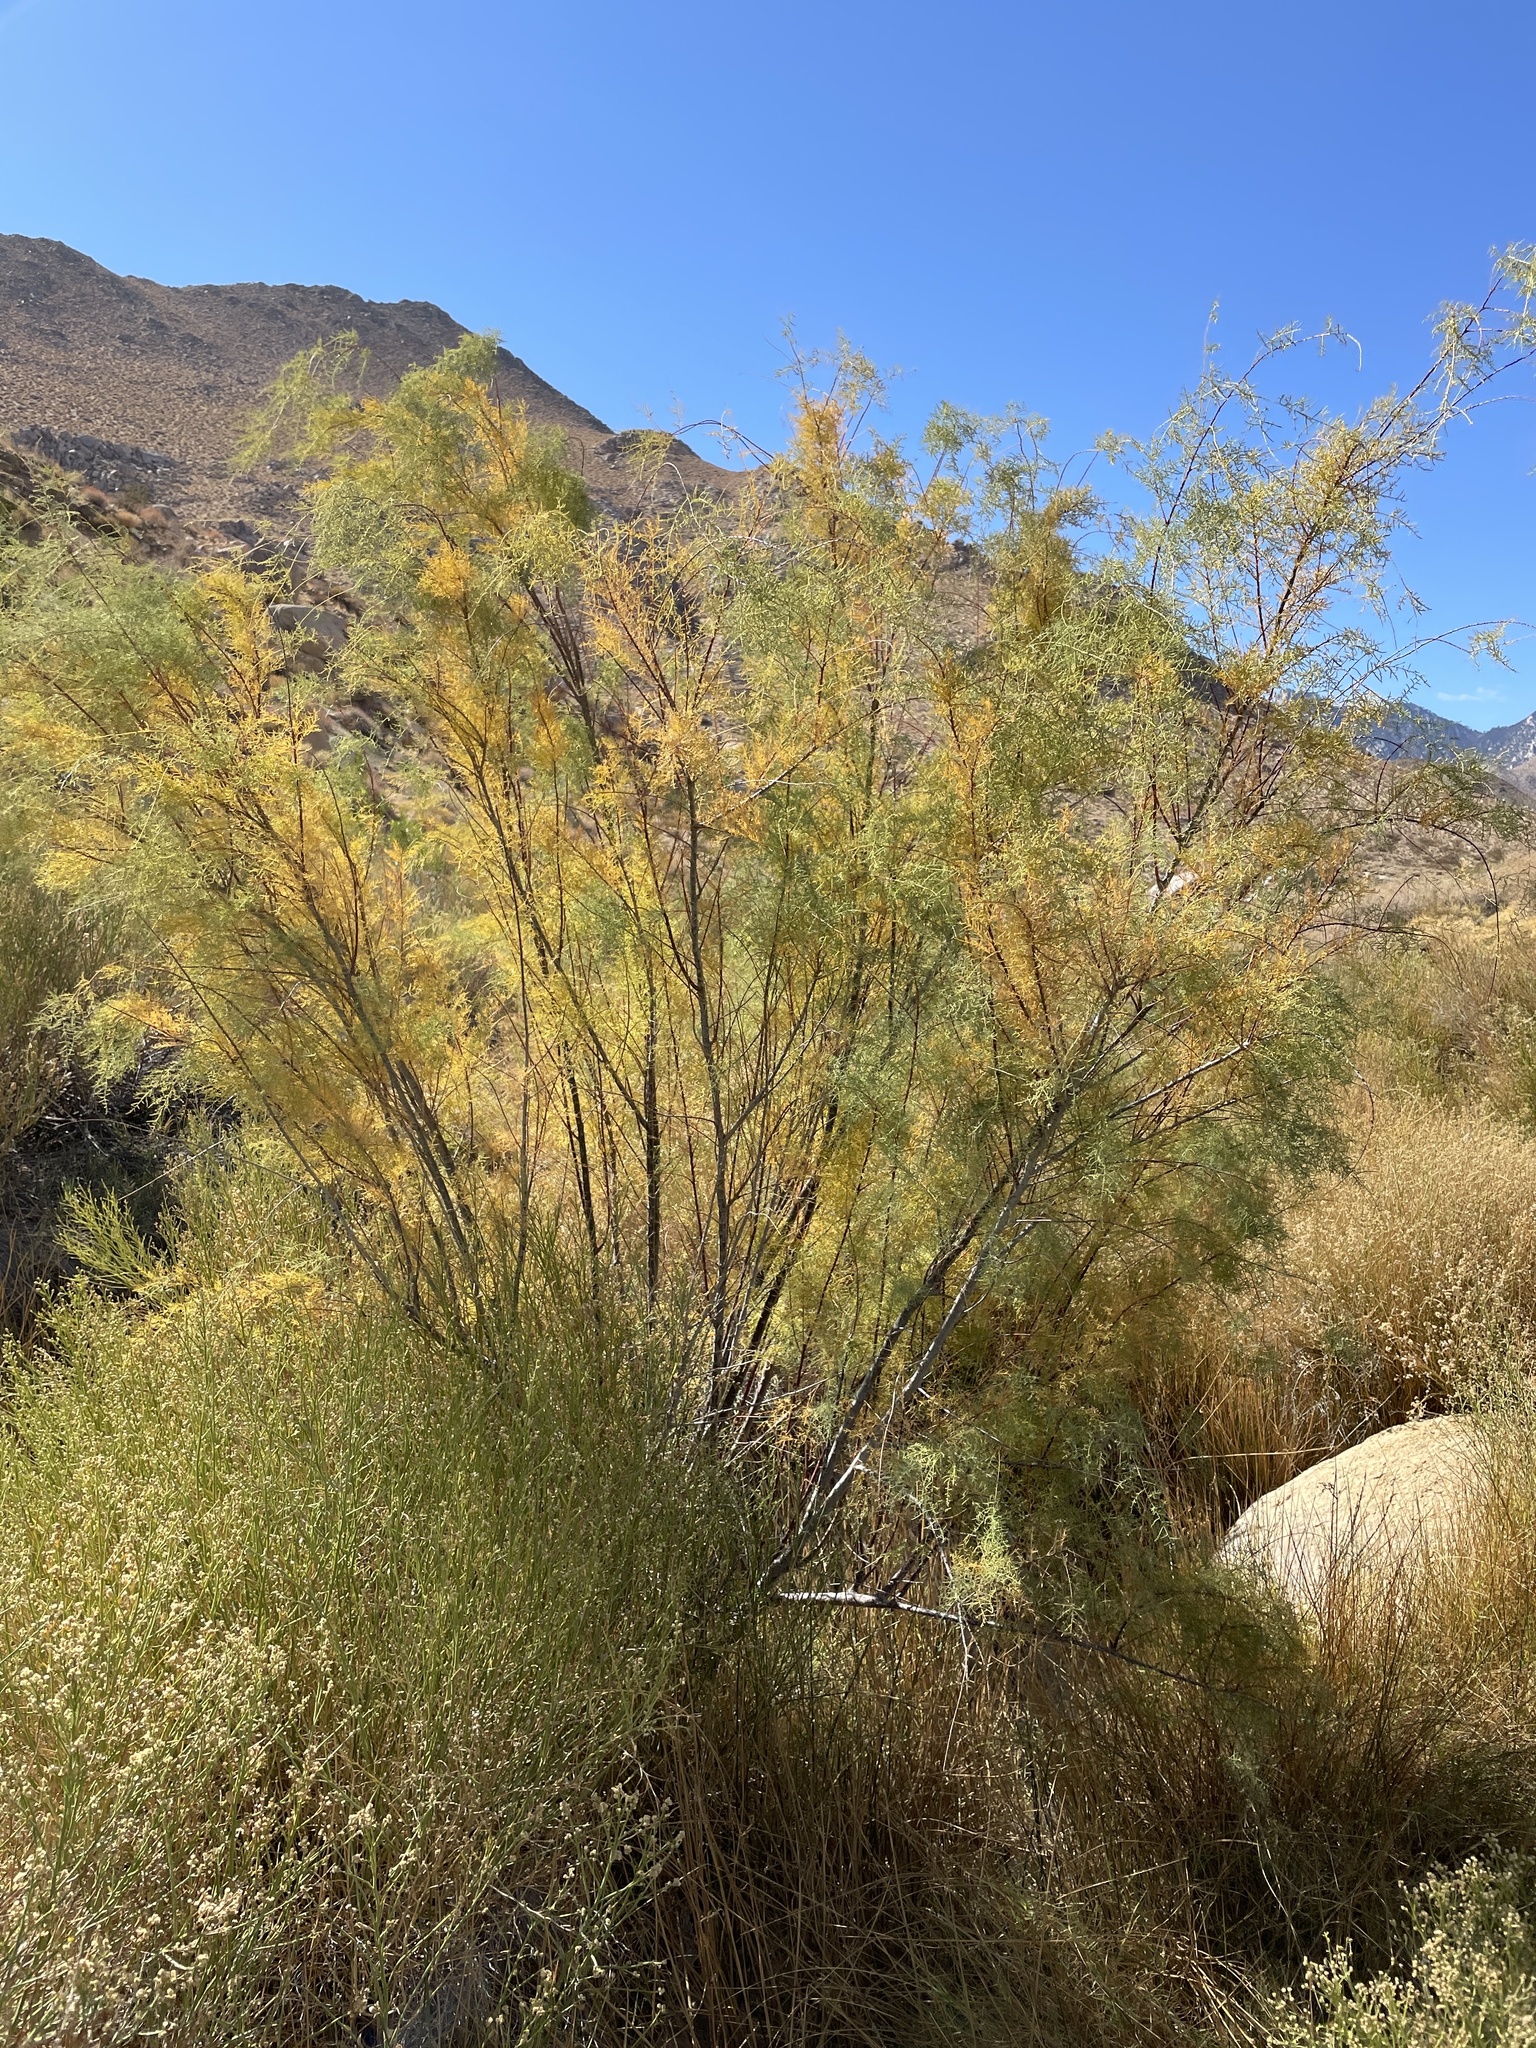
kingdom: Plantae
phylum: Tracheophyta
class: Magnoliopsida
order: Caryophyllales
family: Tamaricaceae
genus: Tamarix
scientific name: Tamarix ramosissima
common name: Pink tamarisk
